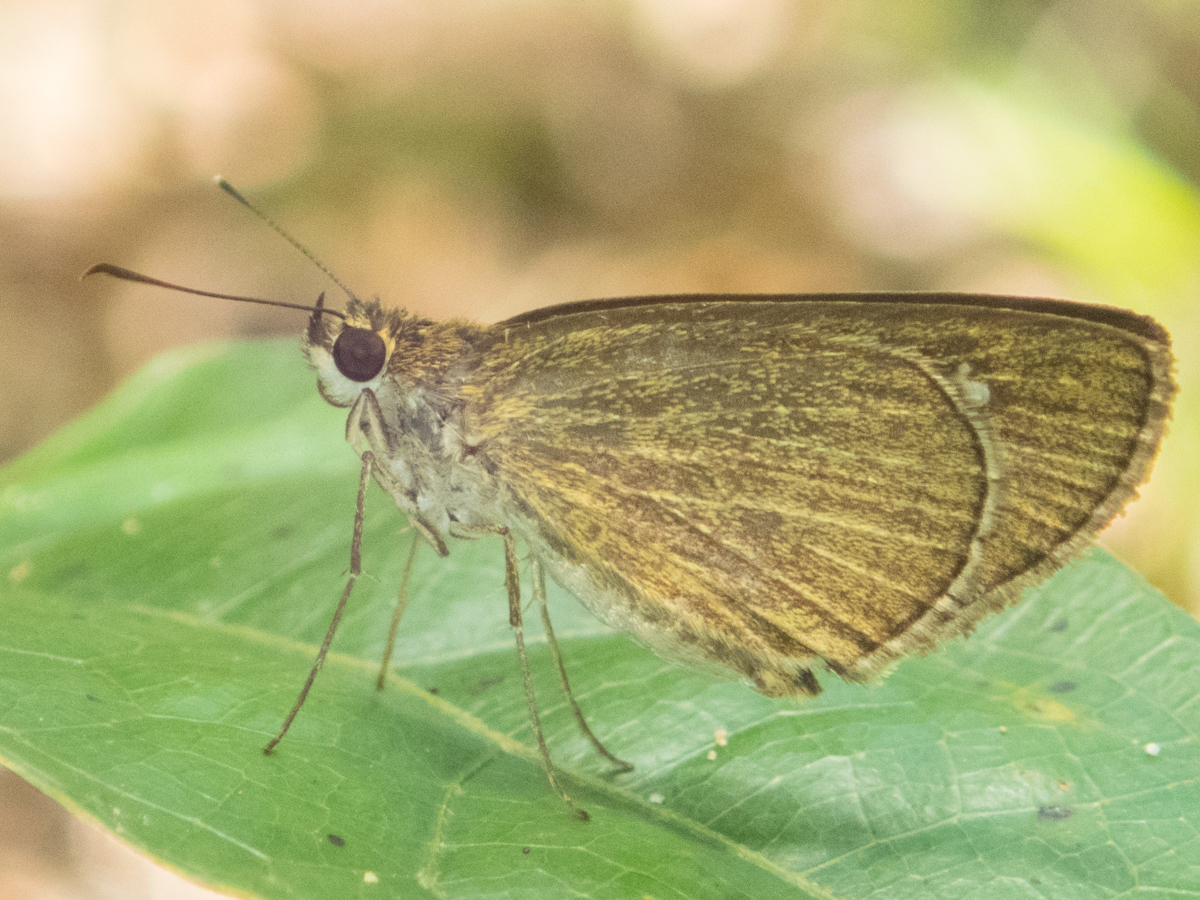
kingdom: Animalia
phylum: Arthropoda
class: Insecta
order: Lepidoptera
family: Hesperiidae
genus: Suada
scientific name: Suada swerga
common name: Grass bob
